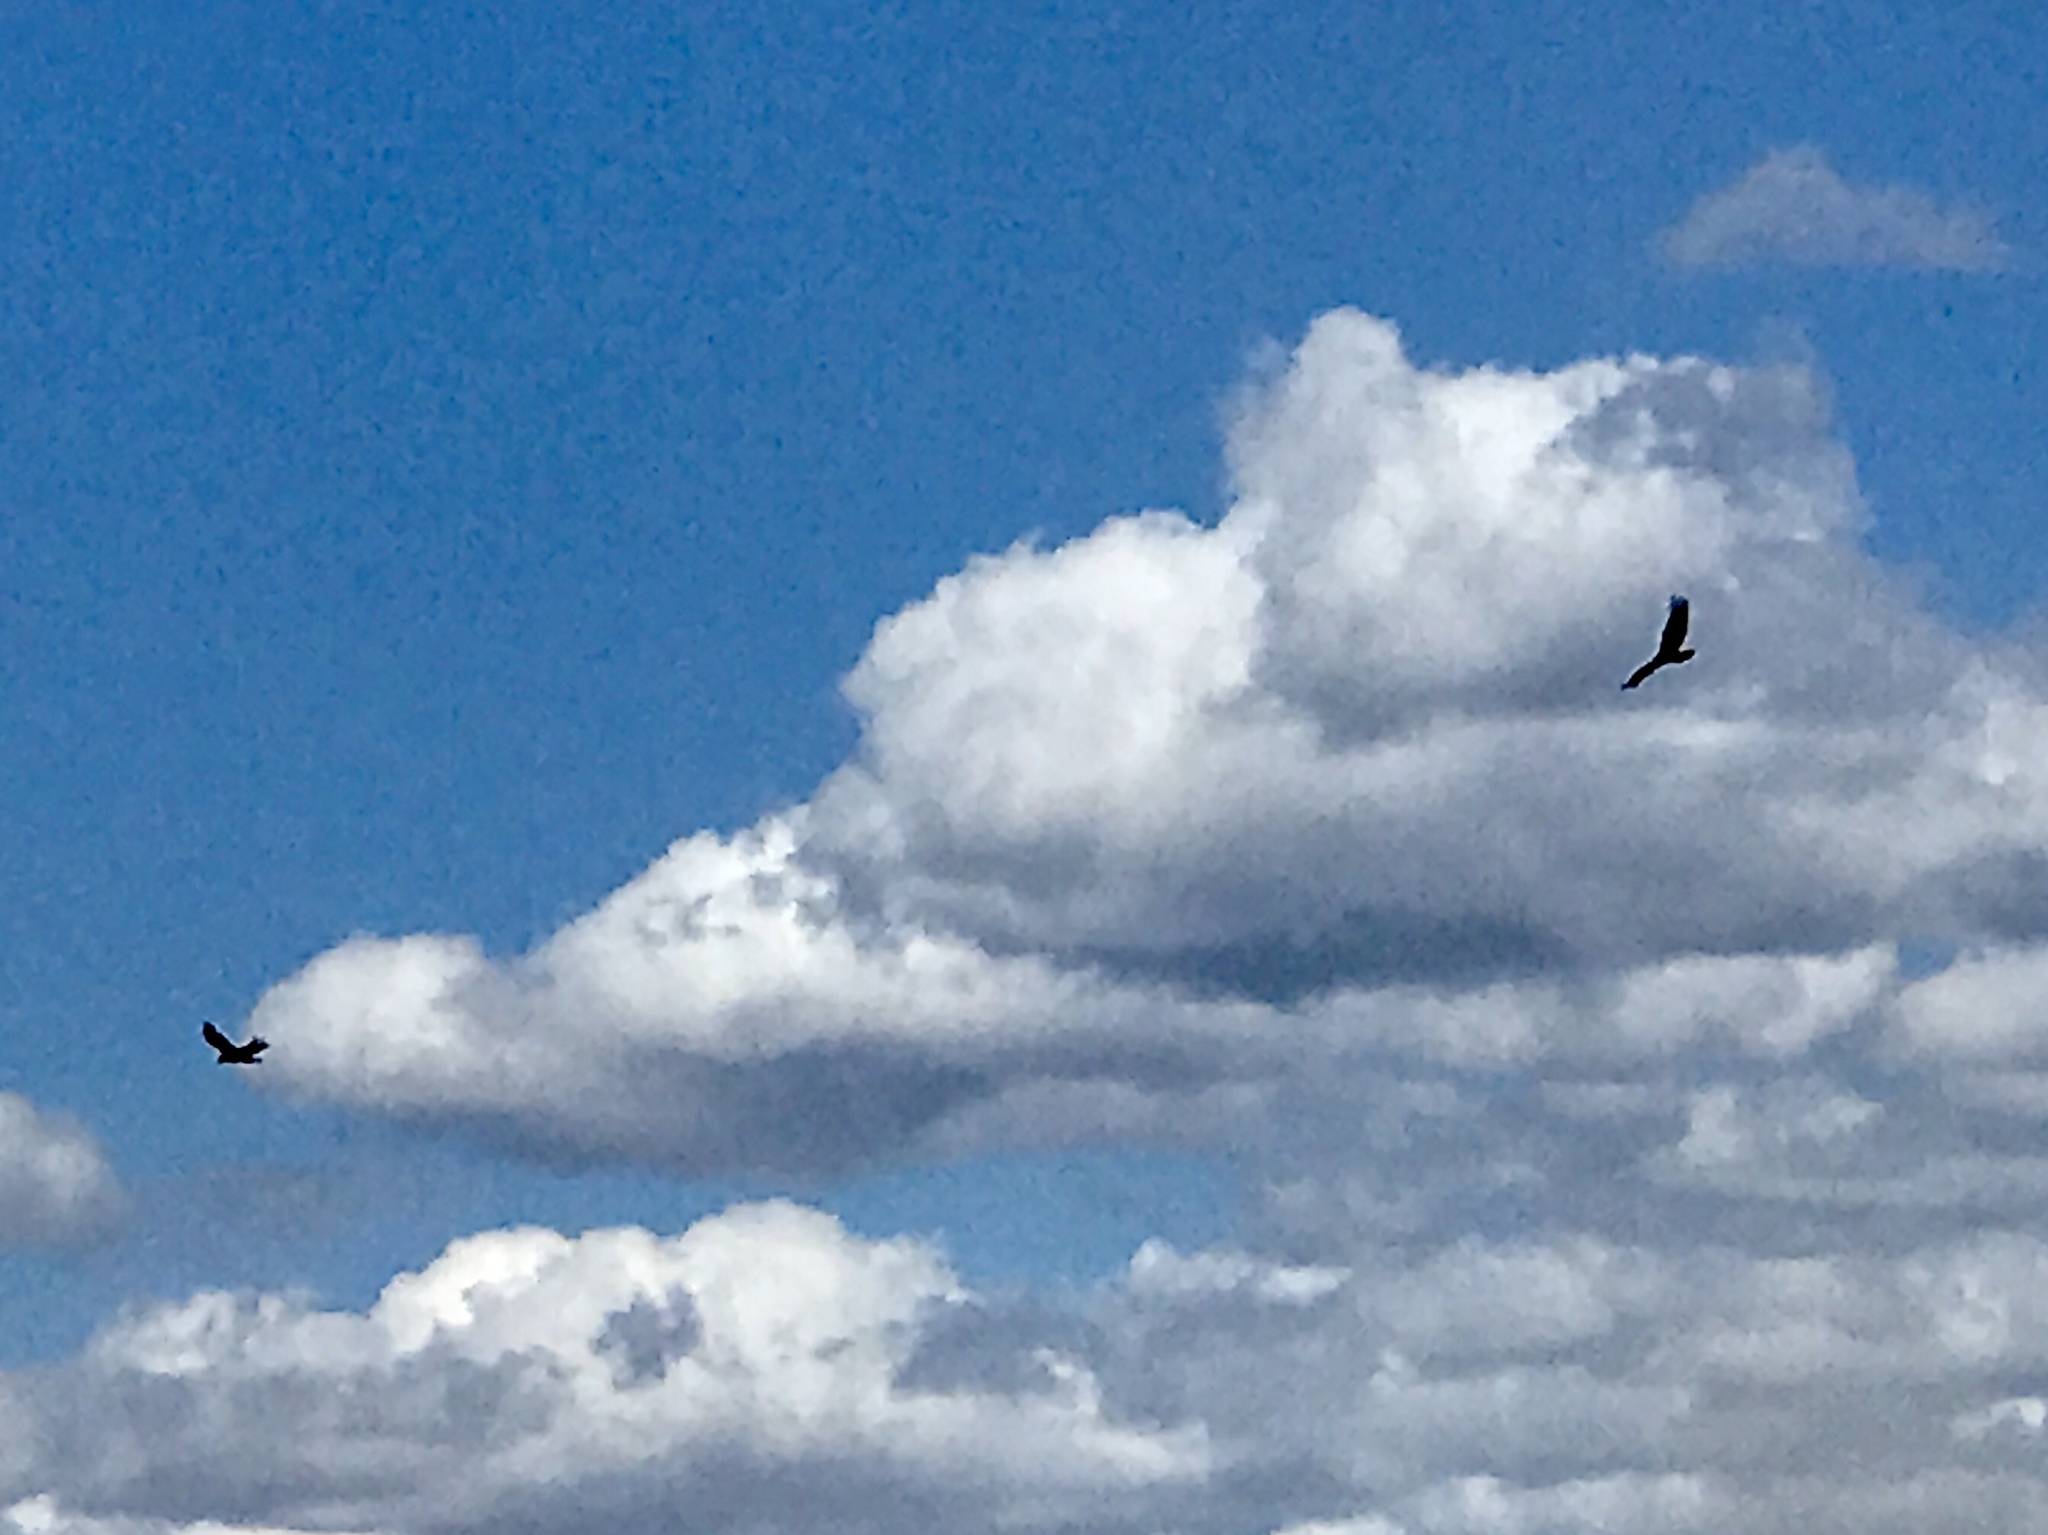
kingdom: Animalia
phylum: Chordata
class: Aves
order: Accipitriformes
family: Cathartidae
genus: Cathartes
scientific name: Cathartes aura
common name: Turkey vulture
